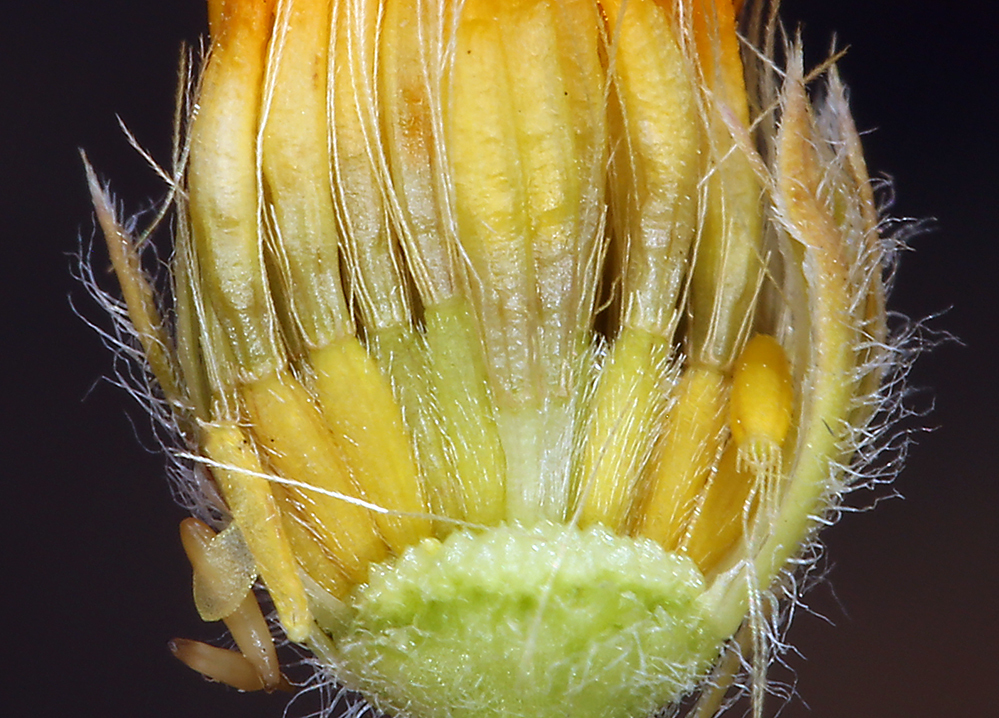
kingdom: Plantae
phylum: Tracheophyta
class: Magnoliopsida
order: Asterales
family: Asteraceae
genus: Pentachaeta
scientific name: Pentachaeta lyonii
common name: Lyon's pentachaeta
